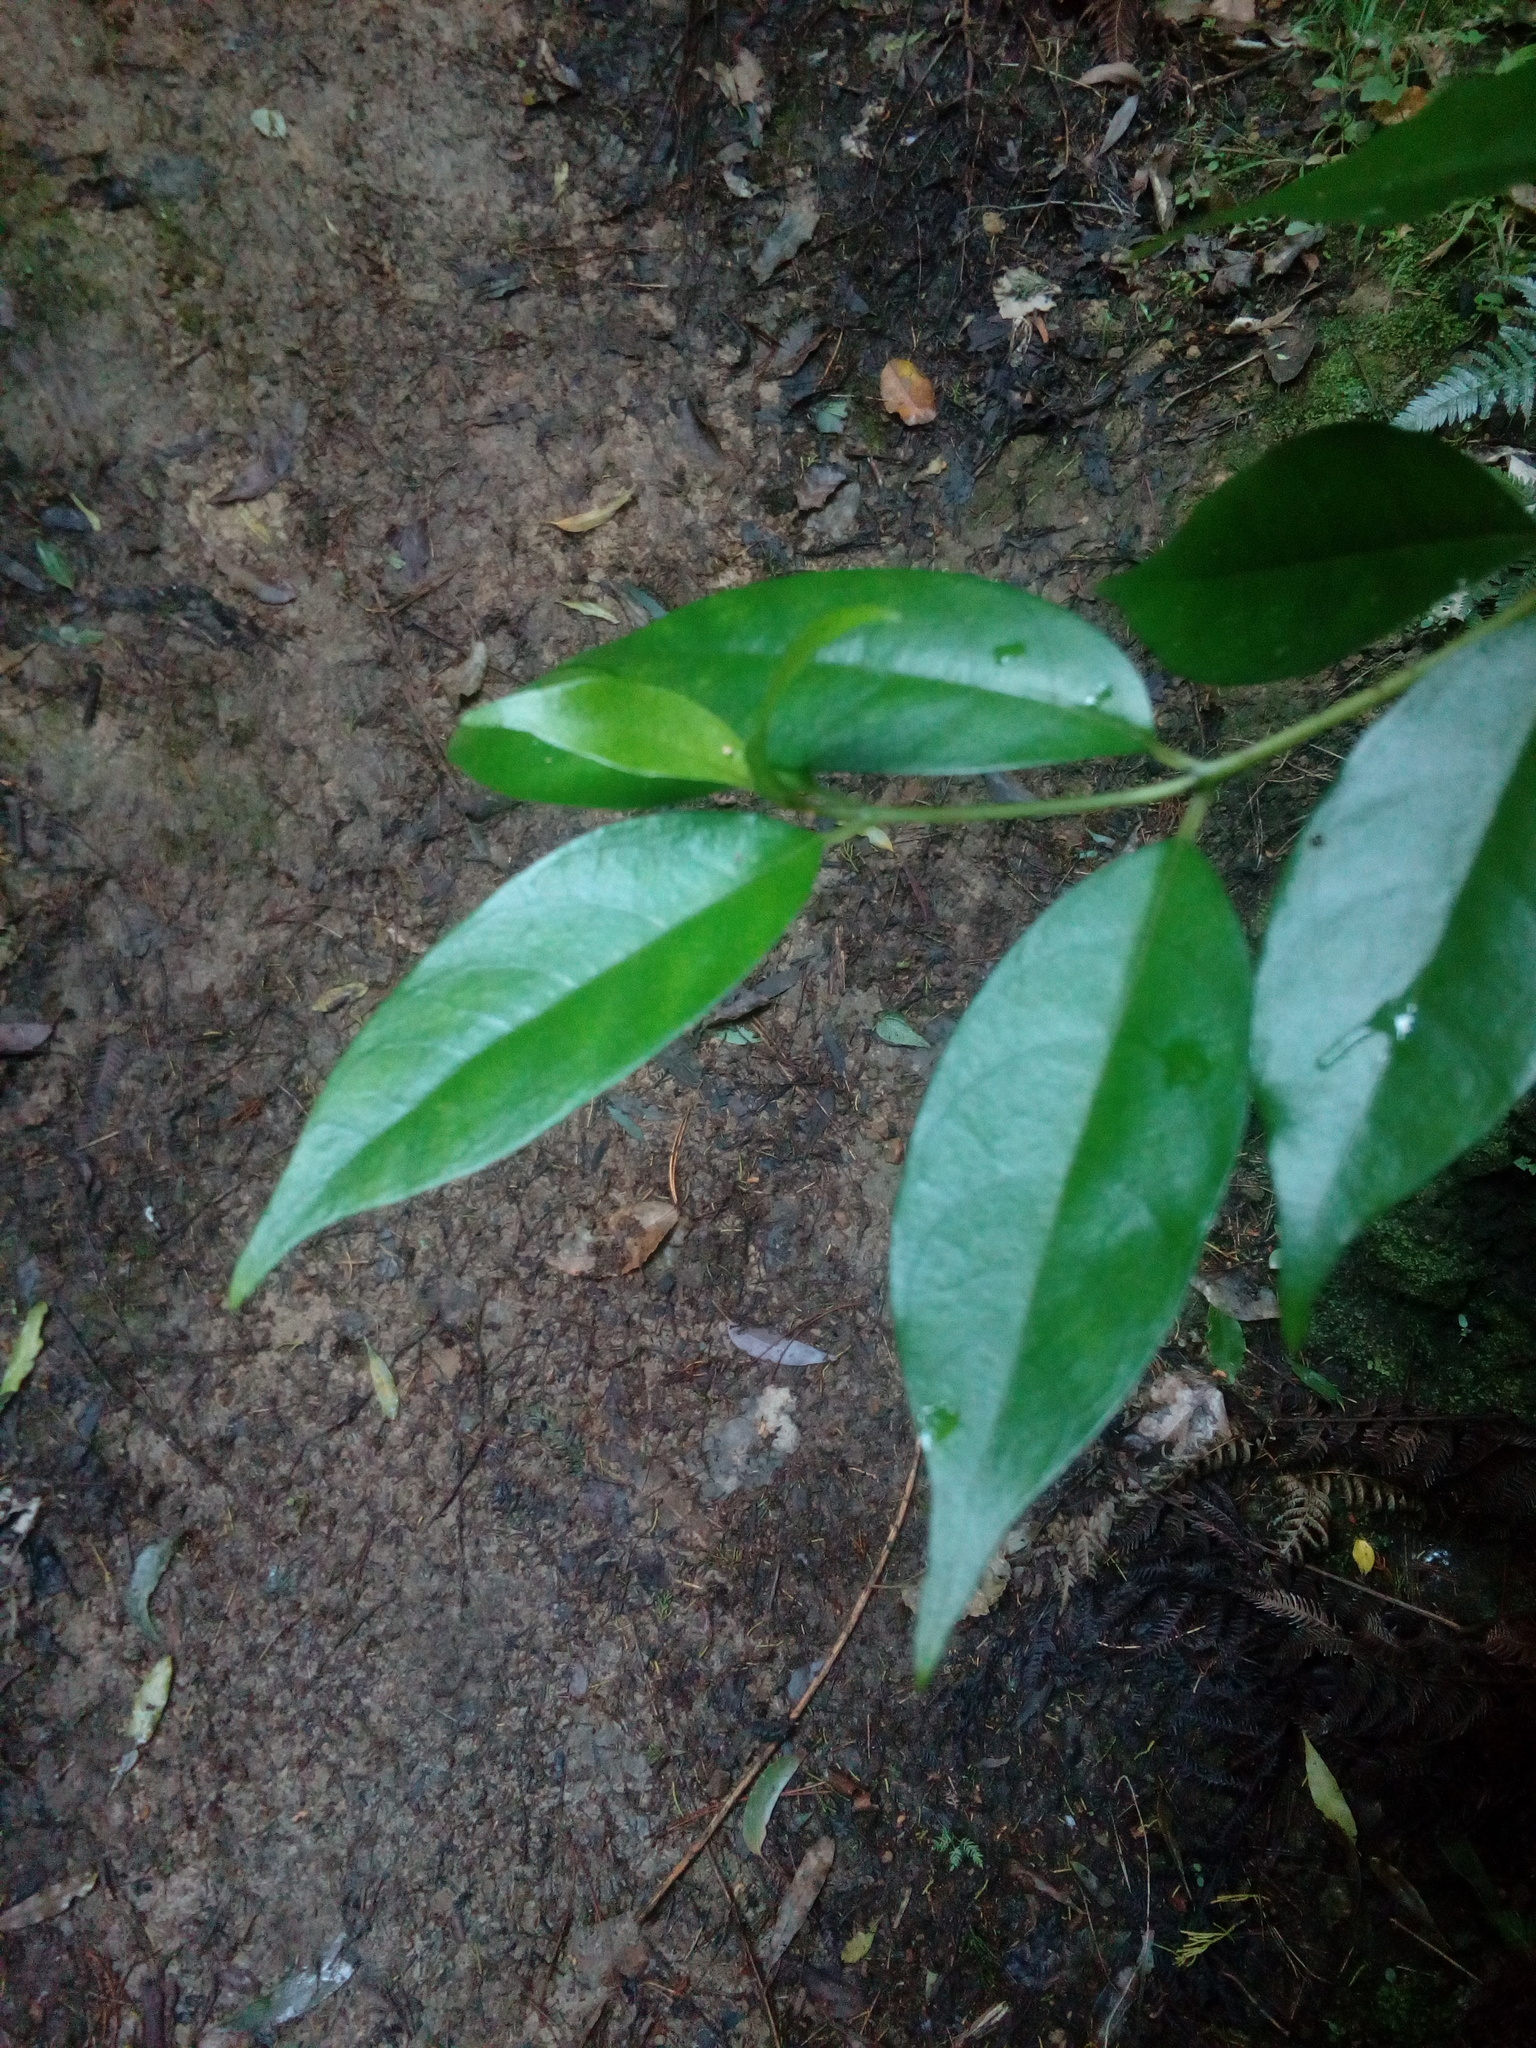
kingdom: Plantae
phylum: Tracheophyta
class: Magnoliopsida
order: Gentianales
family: Loganiaceae
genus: Geniostoma
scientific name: Geniostoma ligustrifolium
